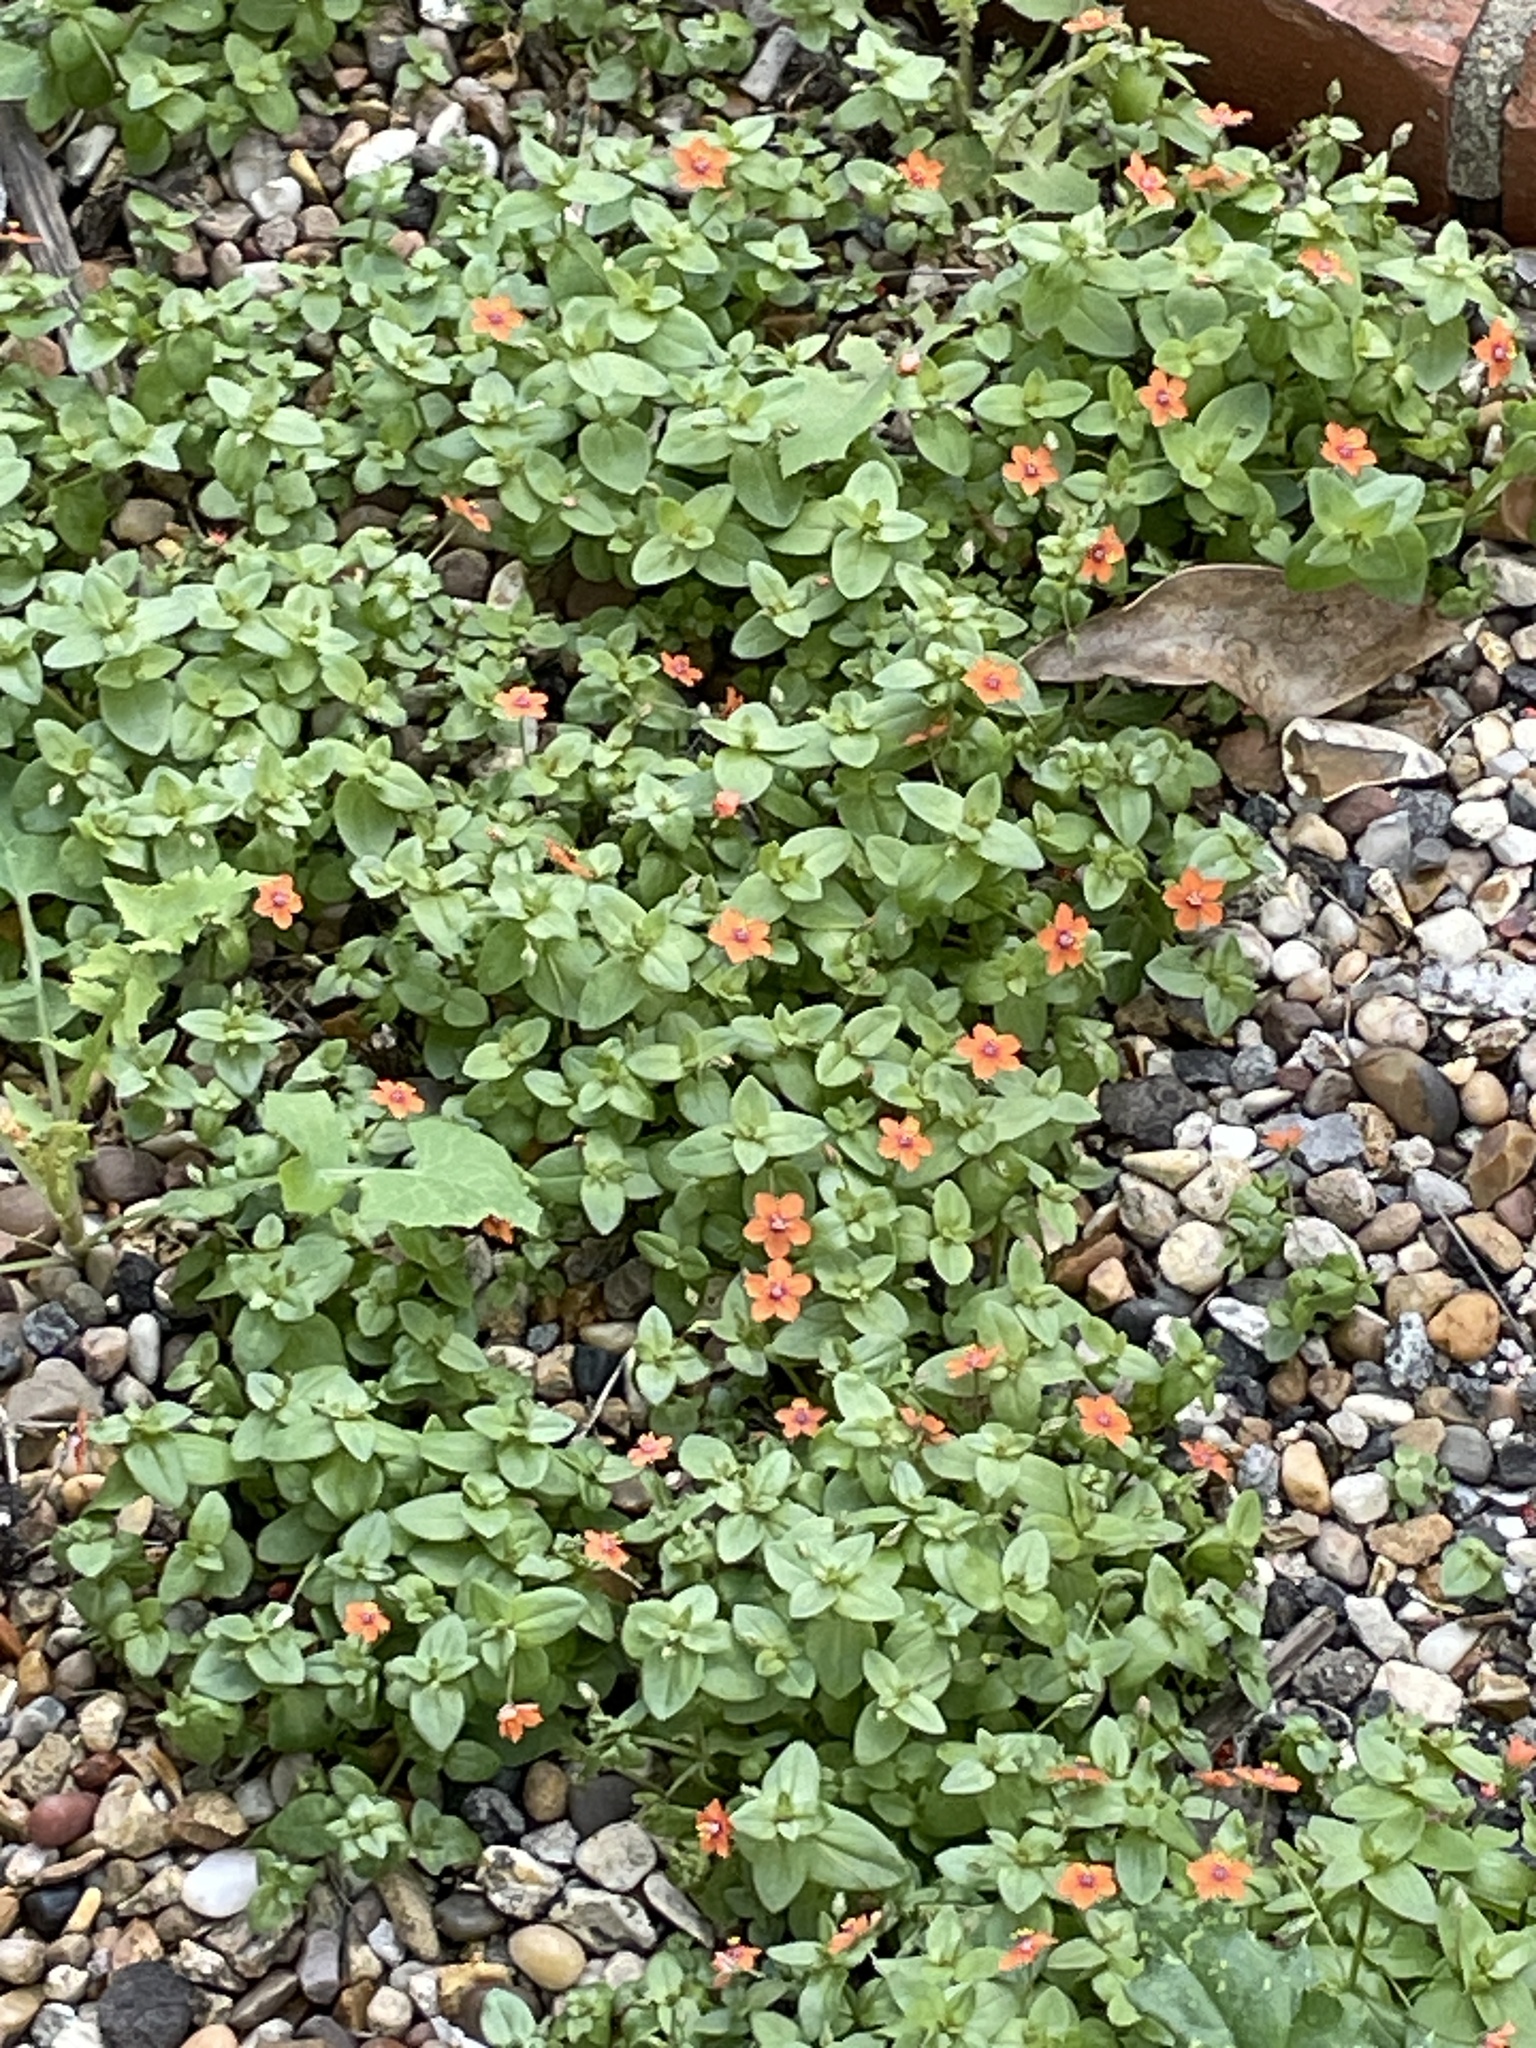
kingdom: Plantae
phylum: Tracheophyta
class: Magnoliopsida
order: Ericales
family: Primulaceae
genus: Lysimachia
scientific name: Lysimachia arvensis
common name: Scarlet pimpernel
